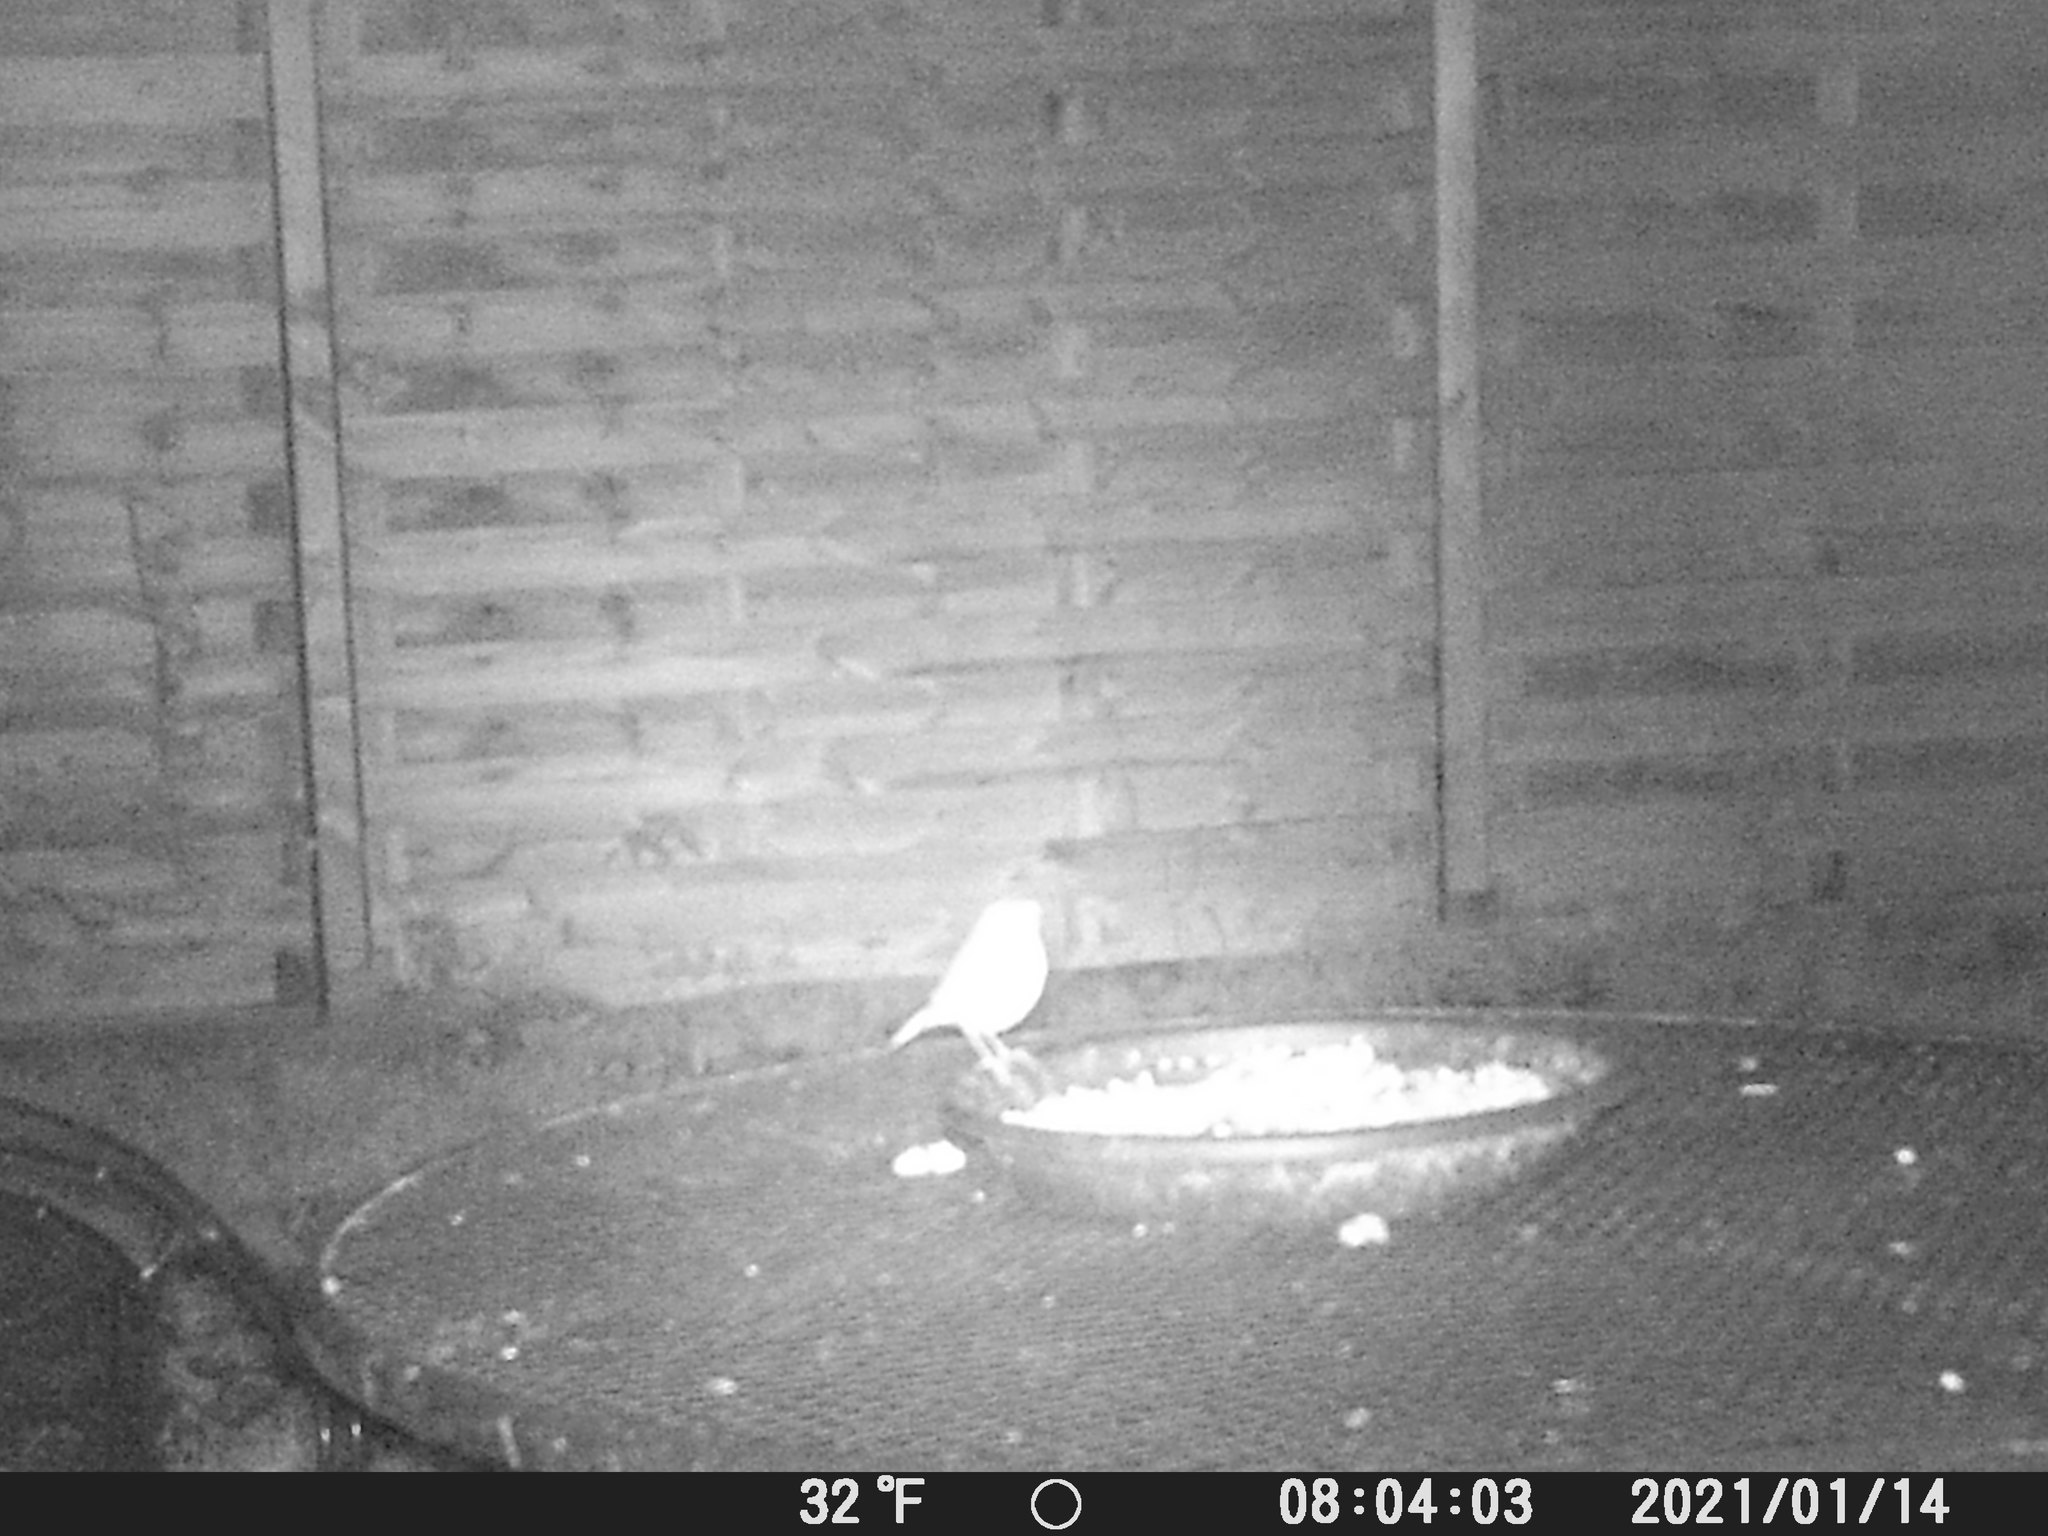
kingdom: Animalia
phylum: Chordata
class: Aves
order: Passeriformes
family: Muscicapidae
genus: Erithacus
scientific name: Erithacus rubecula
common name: European robin
